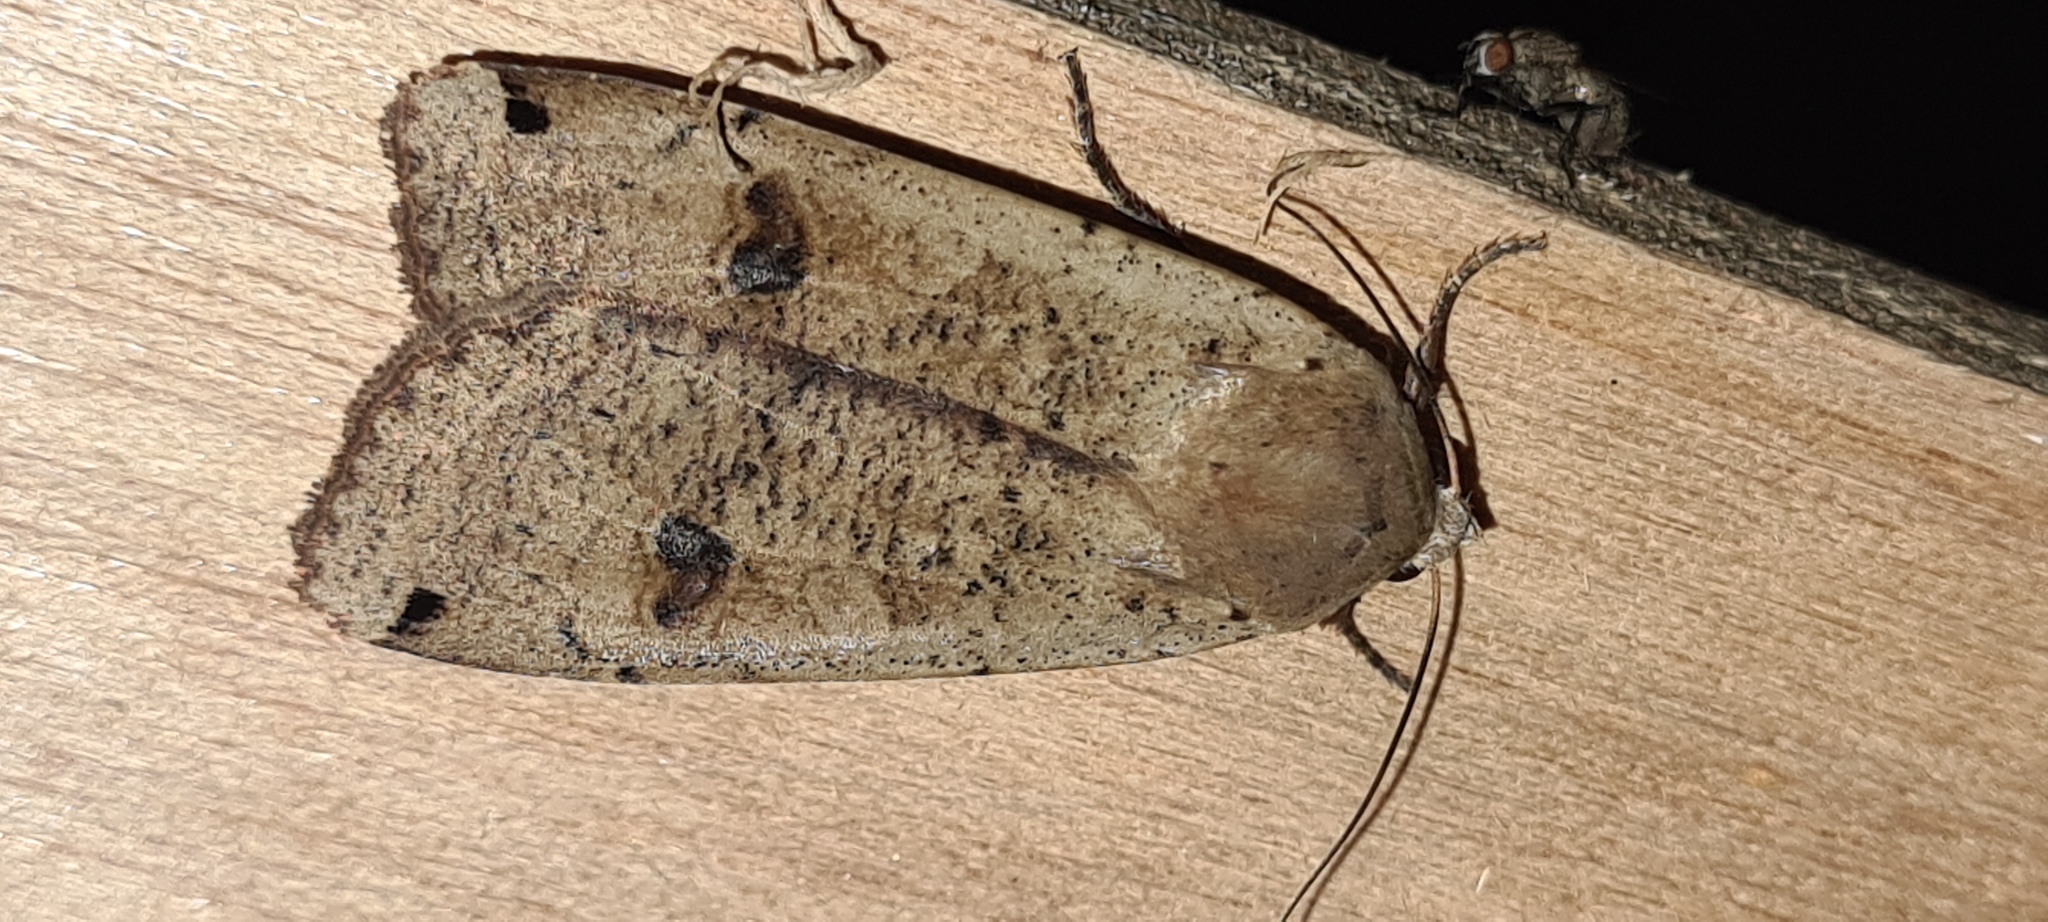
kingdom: Animalia
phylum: Arthropoda
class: Insecta
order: Lepidoptera
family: Noctuidae
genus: Noctua
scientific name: Noctua pronuba
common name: Large yellow underwing
